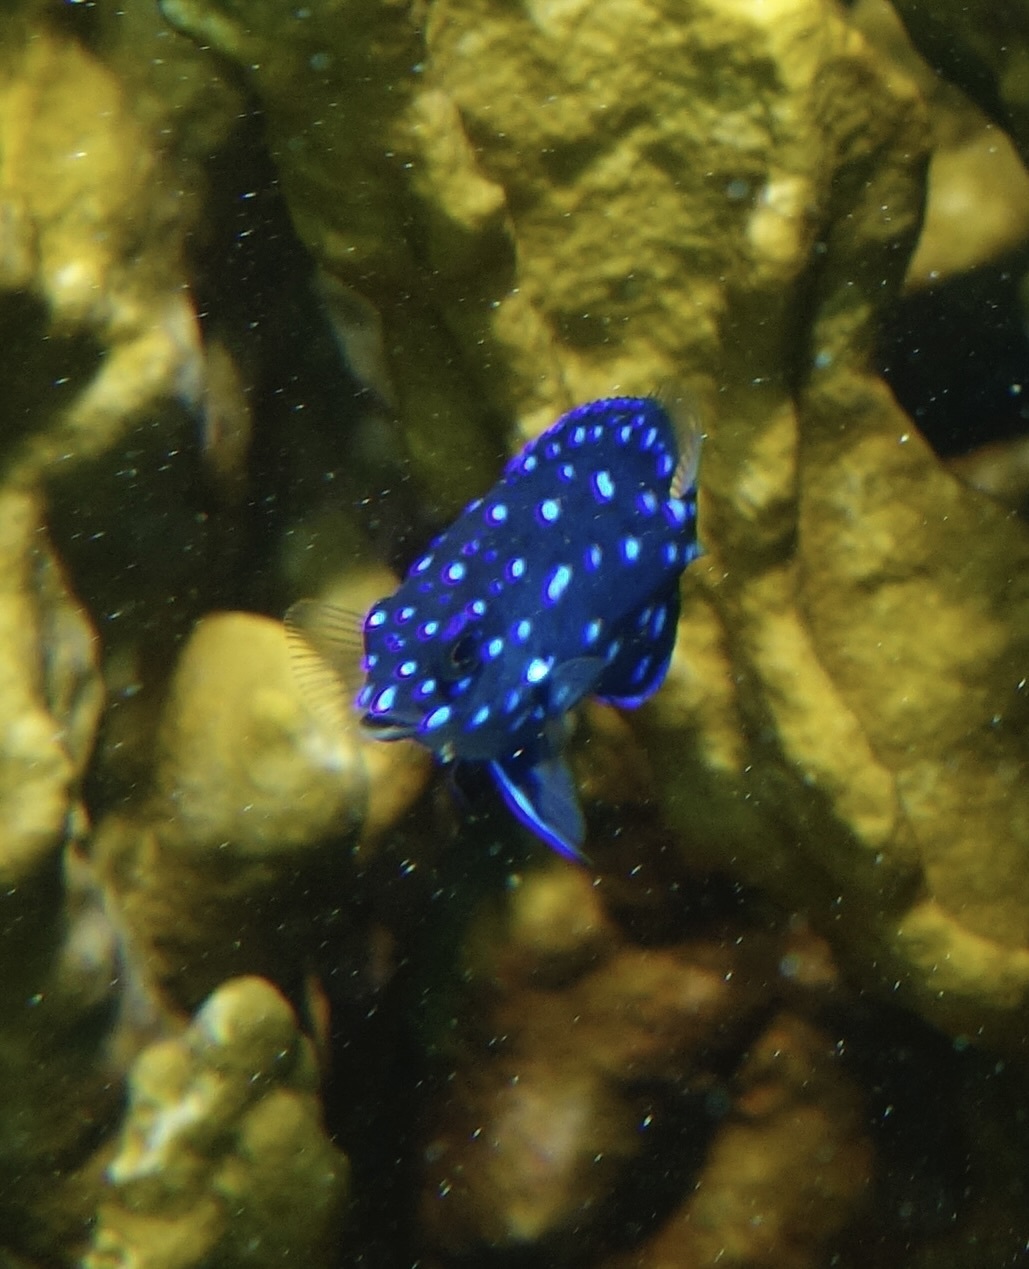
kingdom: Animalia
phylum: Chordata
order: Perciformes
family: Pomacentridae
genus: Microspathodon
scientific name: Microspathodon chrysurus
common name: Yellowtail damselfish
